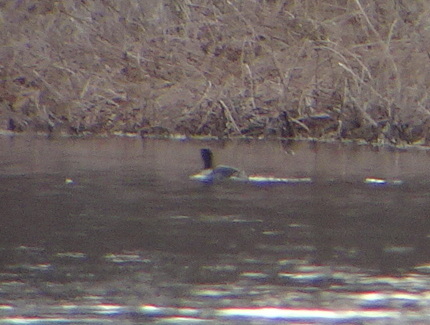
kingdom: Animalia
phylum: Chordata
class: Aves
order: Podicipediformes
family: Podicipedidae
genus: Podilymbus
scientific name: Podilymbus podiceps
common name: Pied-billed grebe
